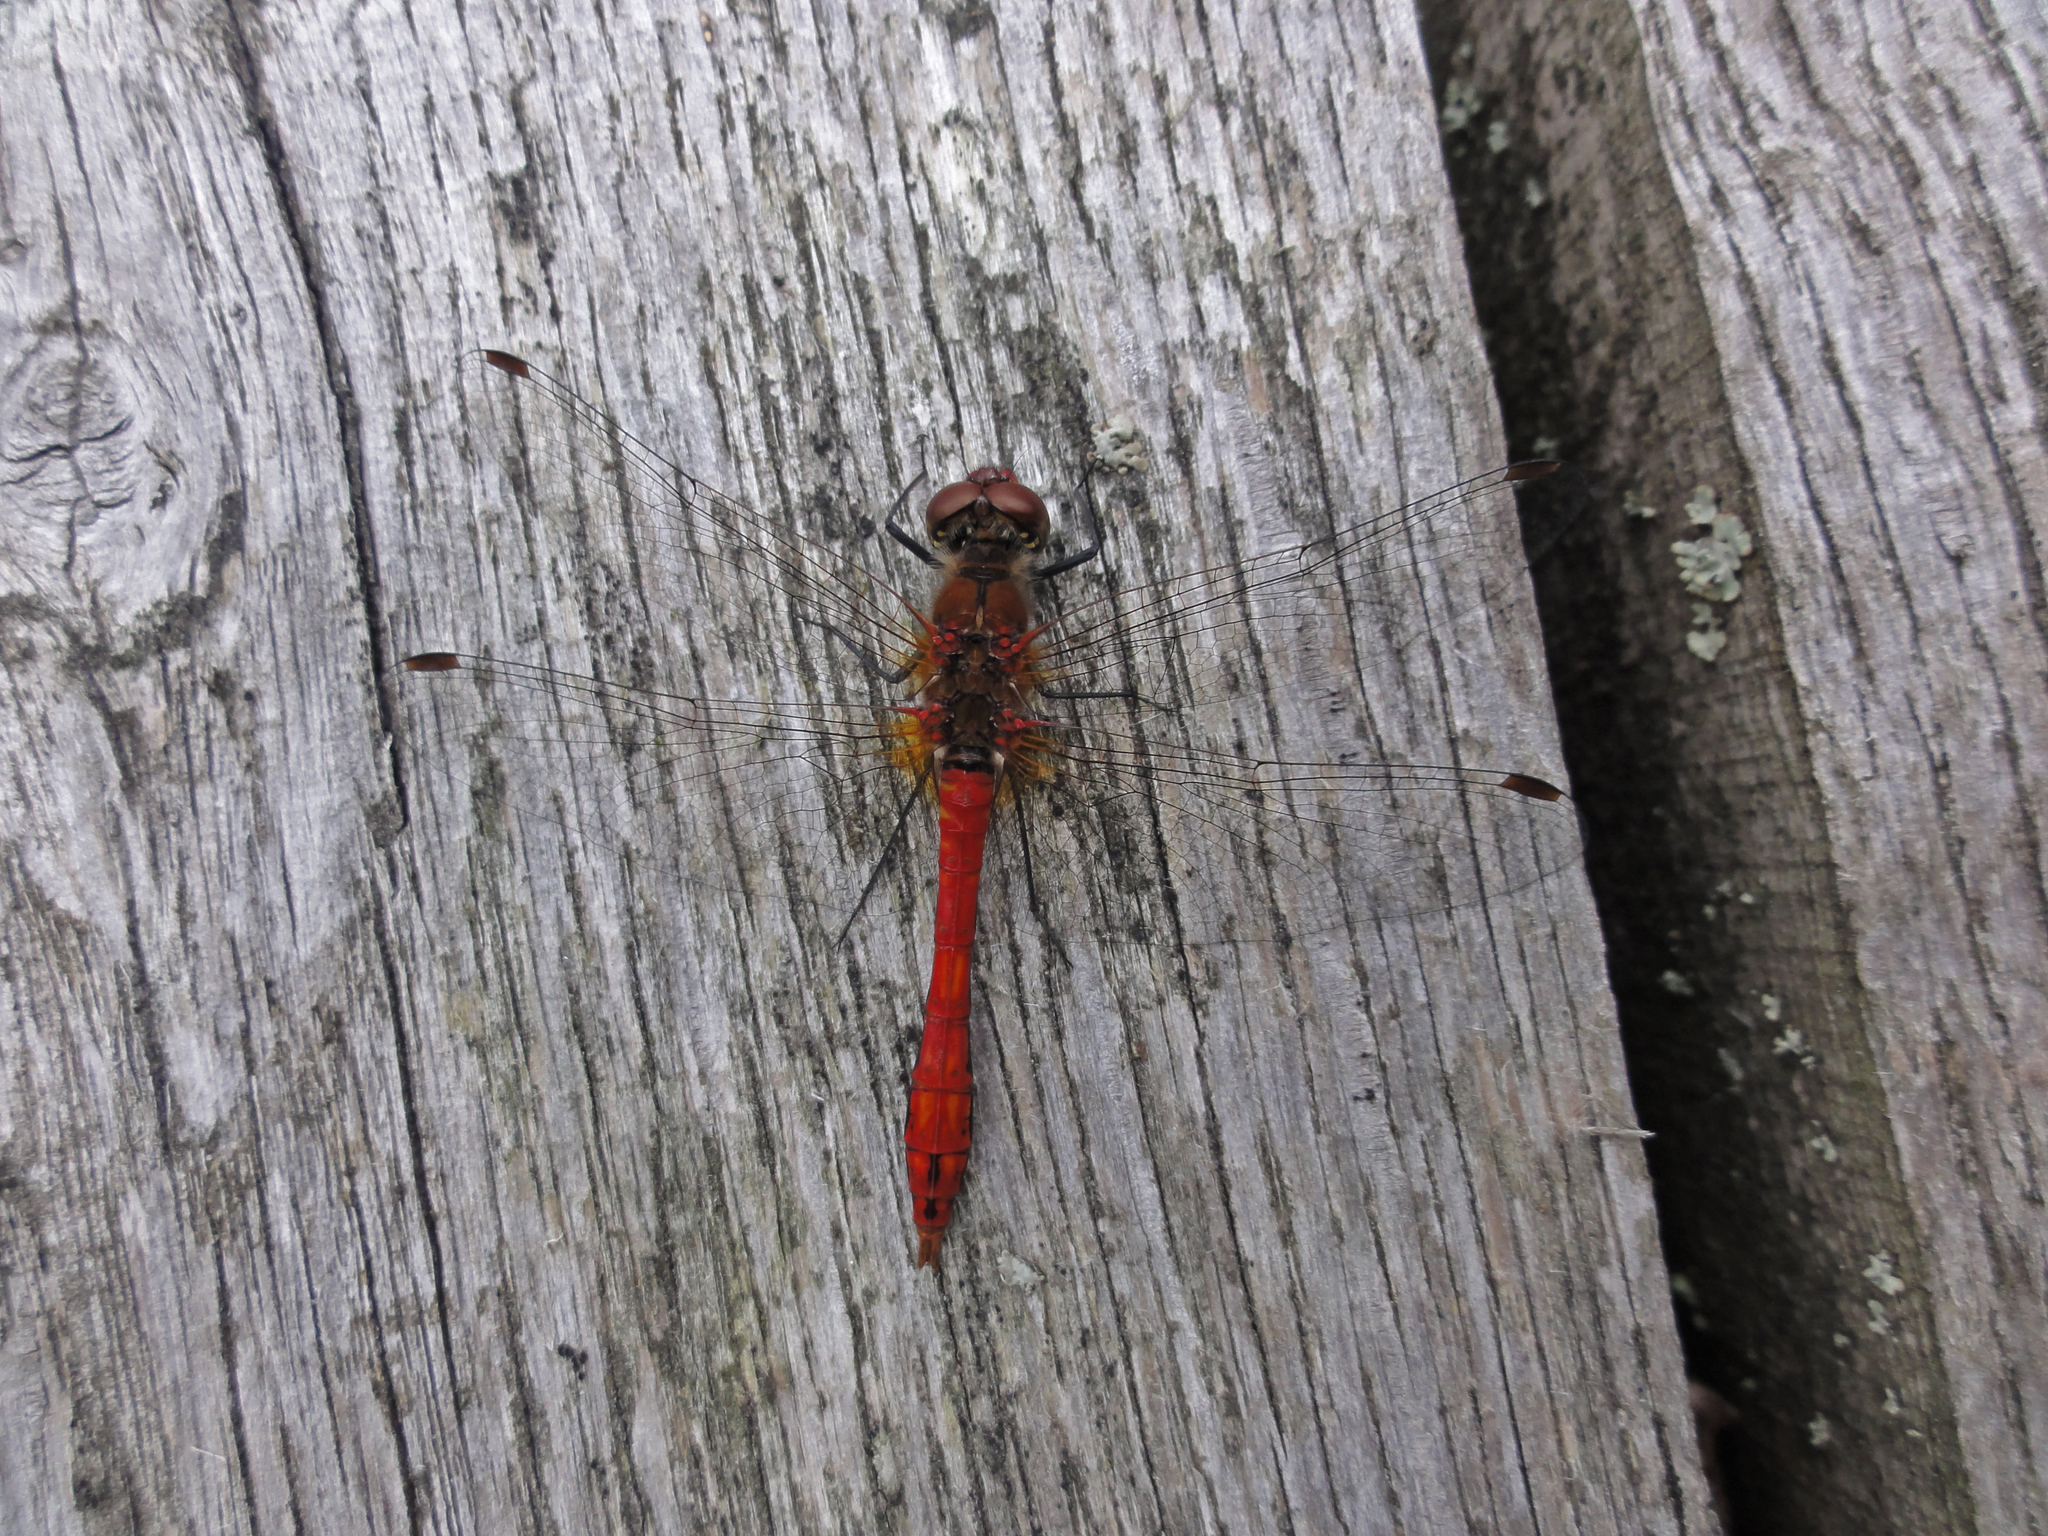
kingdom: Animalia
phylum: Arthropoda
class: Insecta
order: Odonata
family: Libellulidae
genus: Sympetrum
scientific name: Sympetrum sanguineum
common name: Ruddy darter
